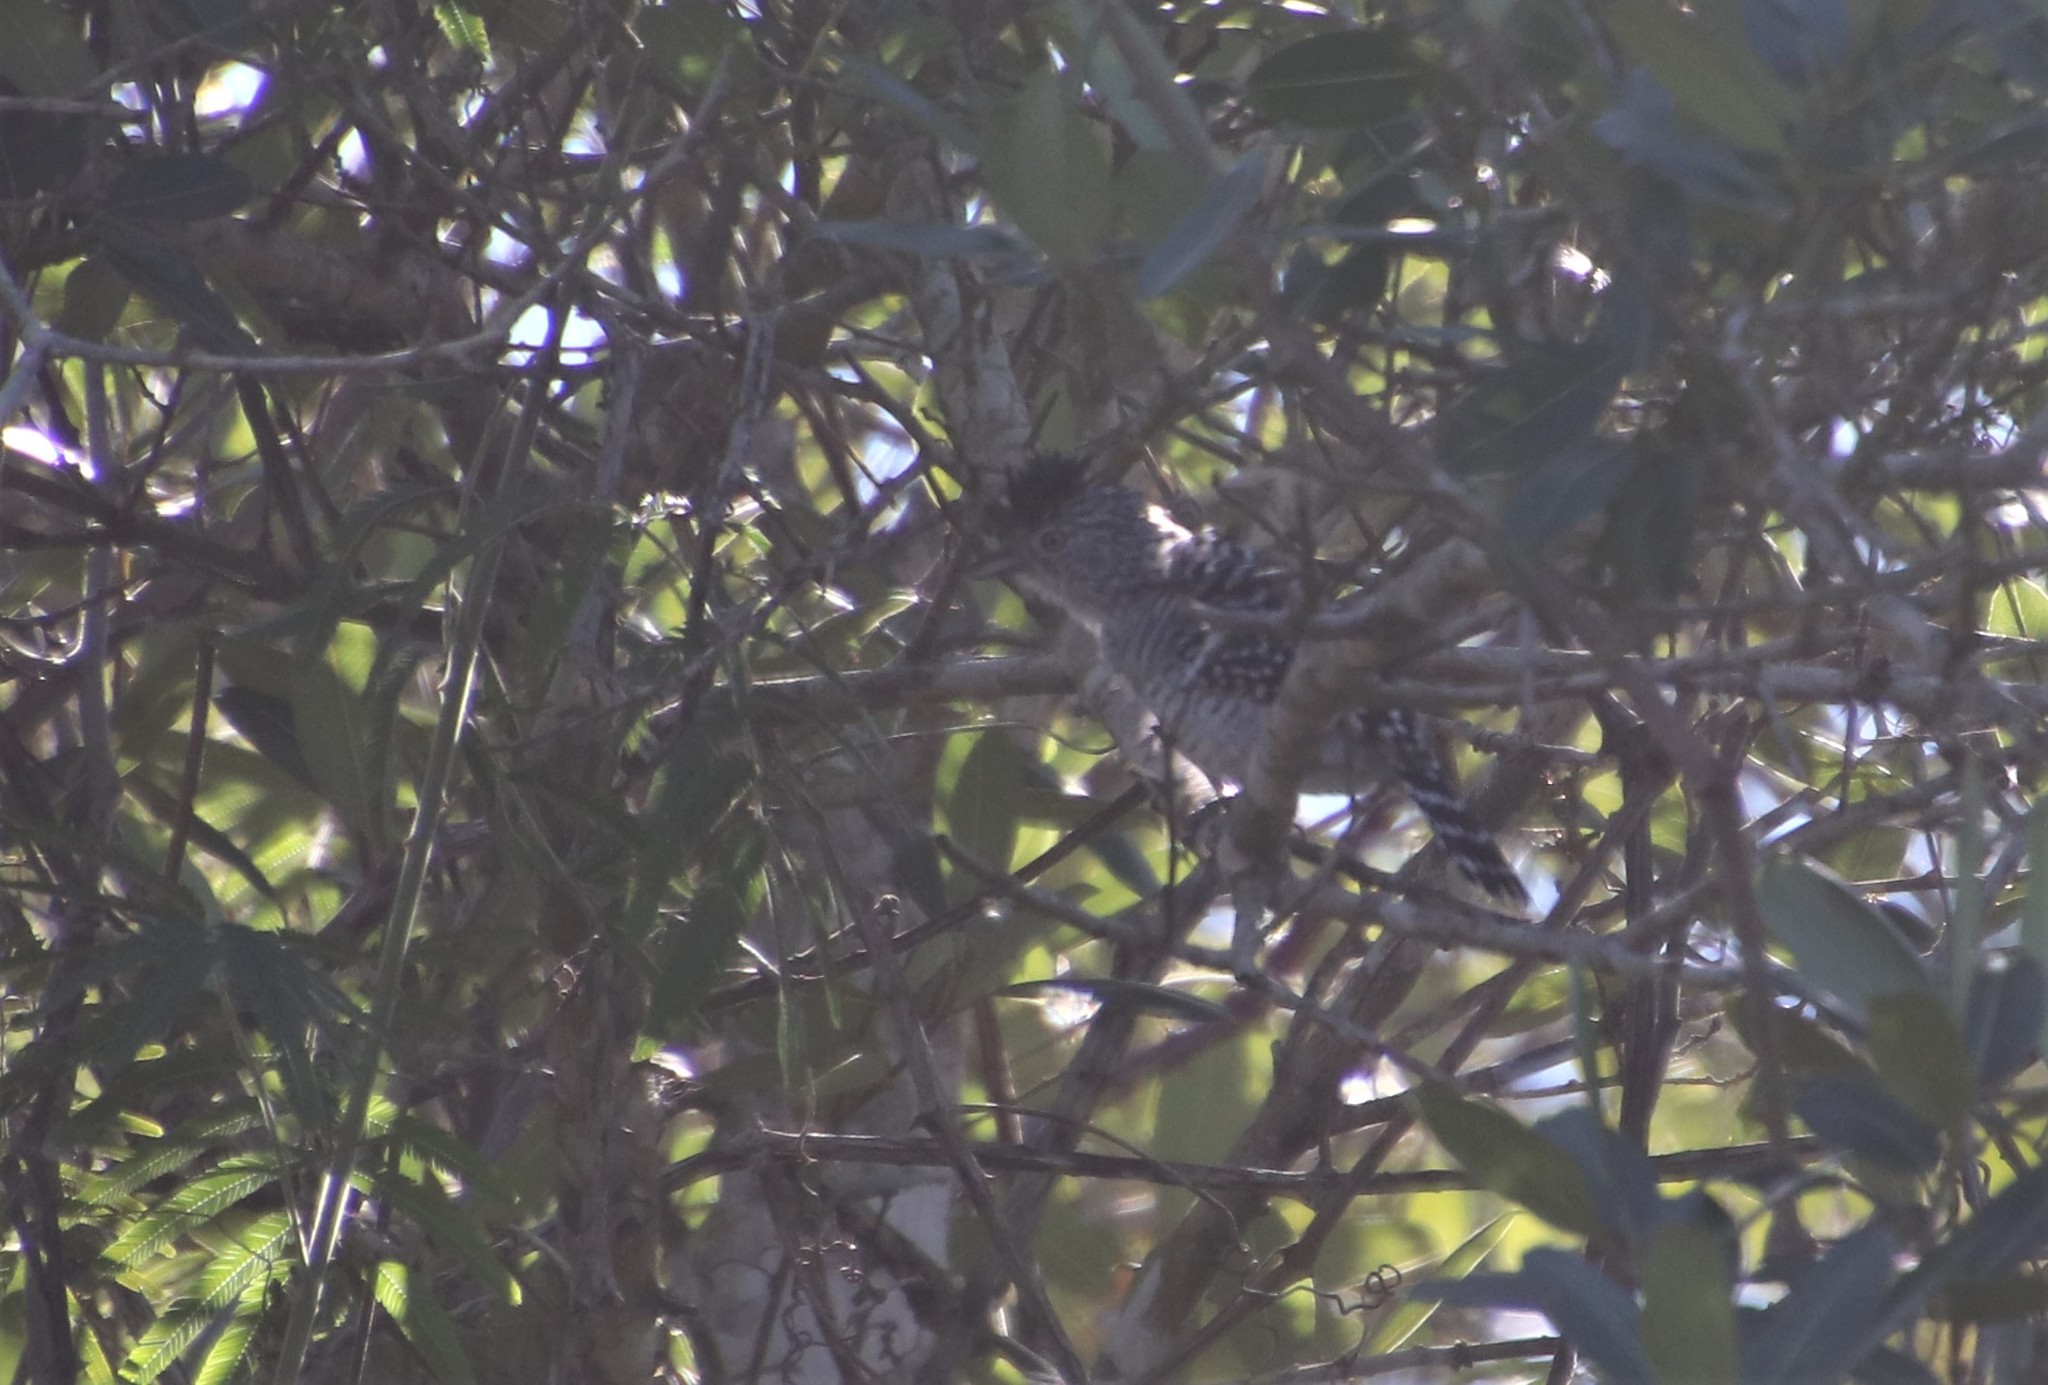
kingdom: Animalia
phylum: Chordata
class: Aves
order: Passeriformes
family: Thamnophilidae
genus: Thamnophilus
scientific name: Thamnophilus doliatus
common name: Barred antshrike
